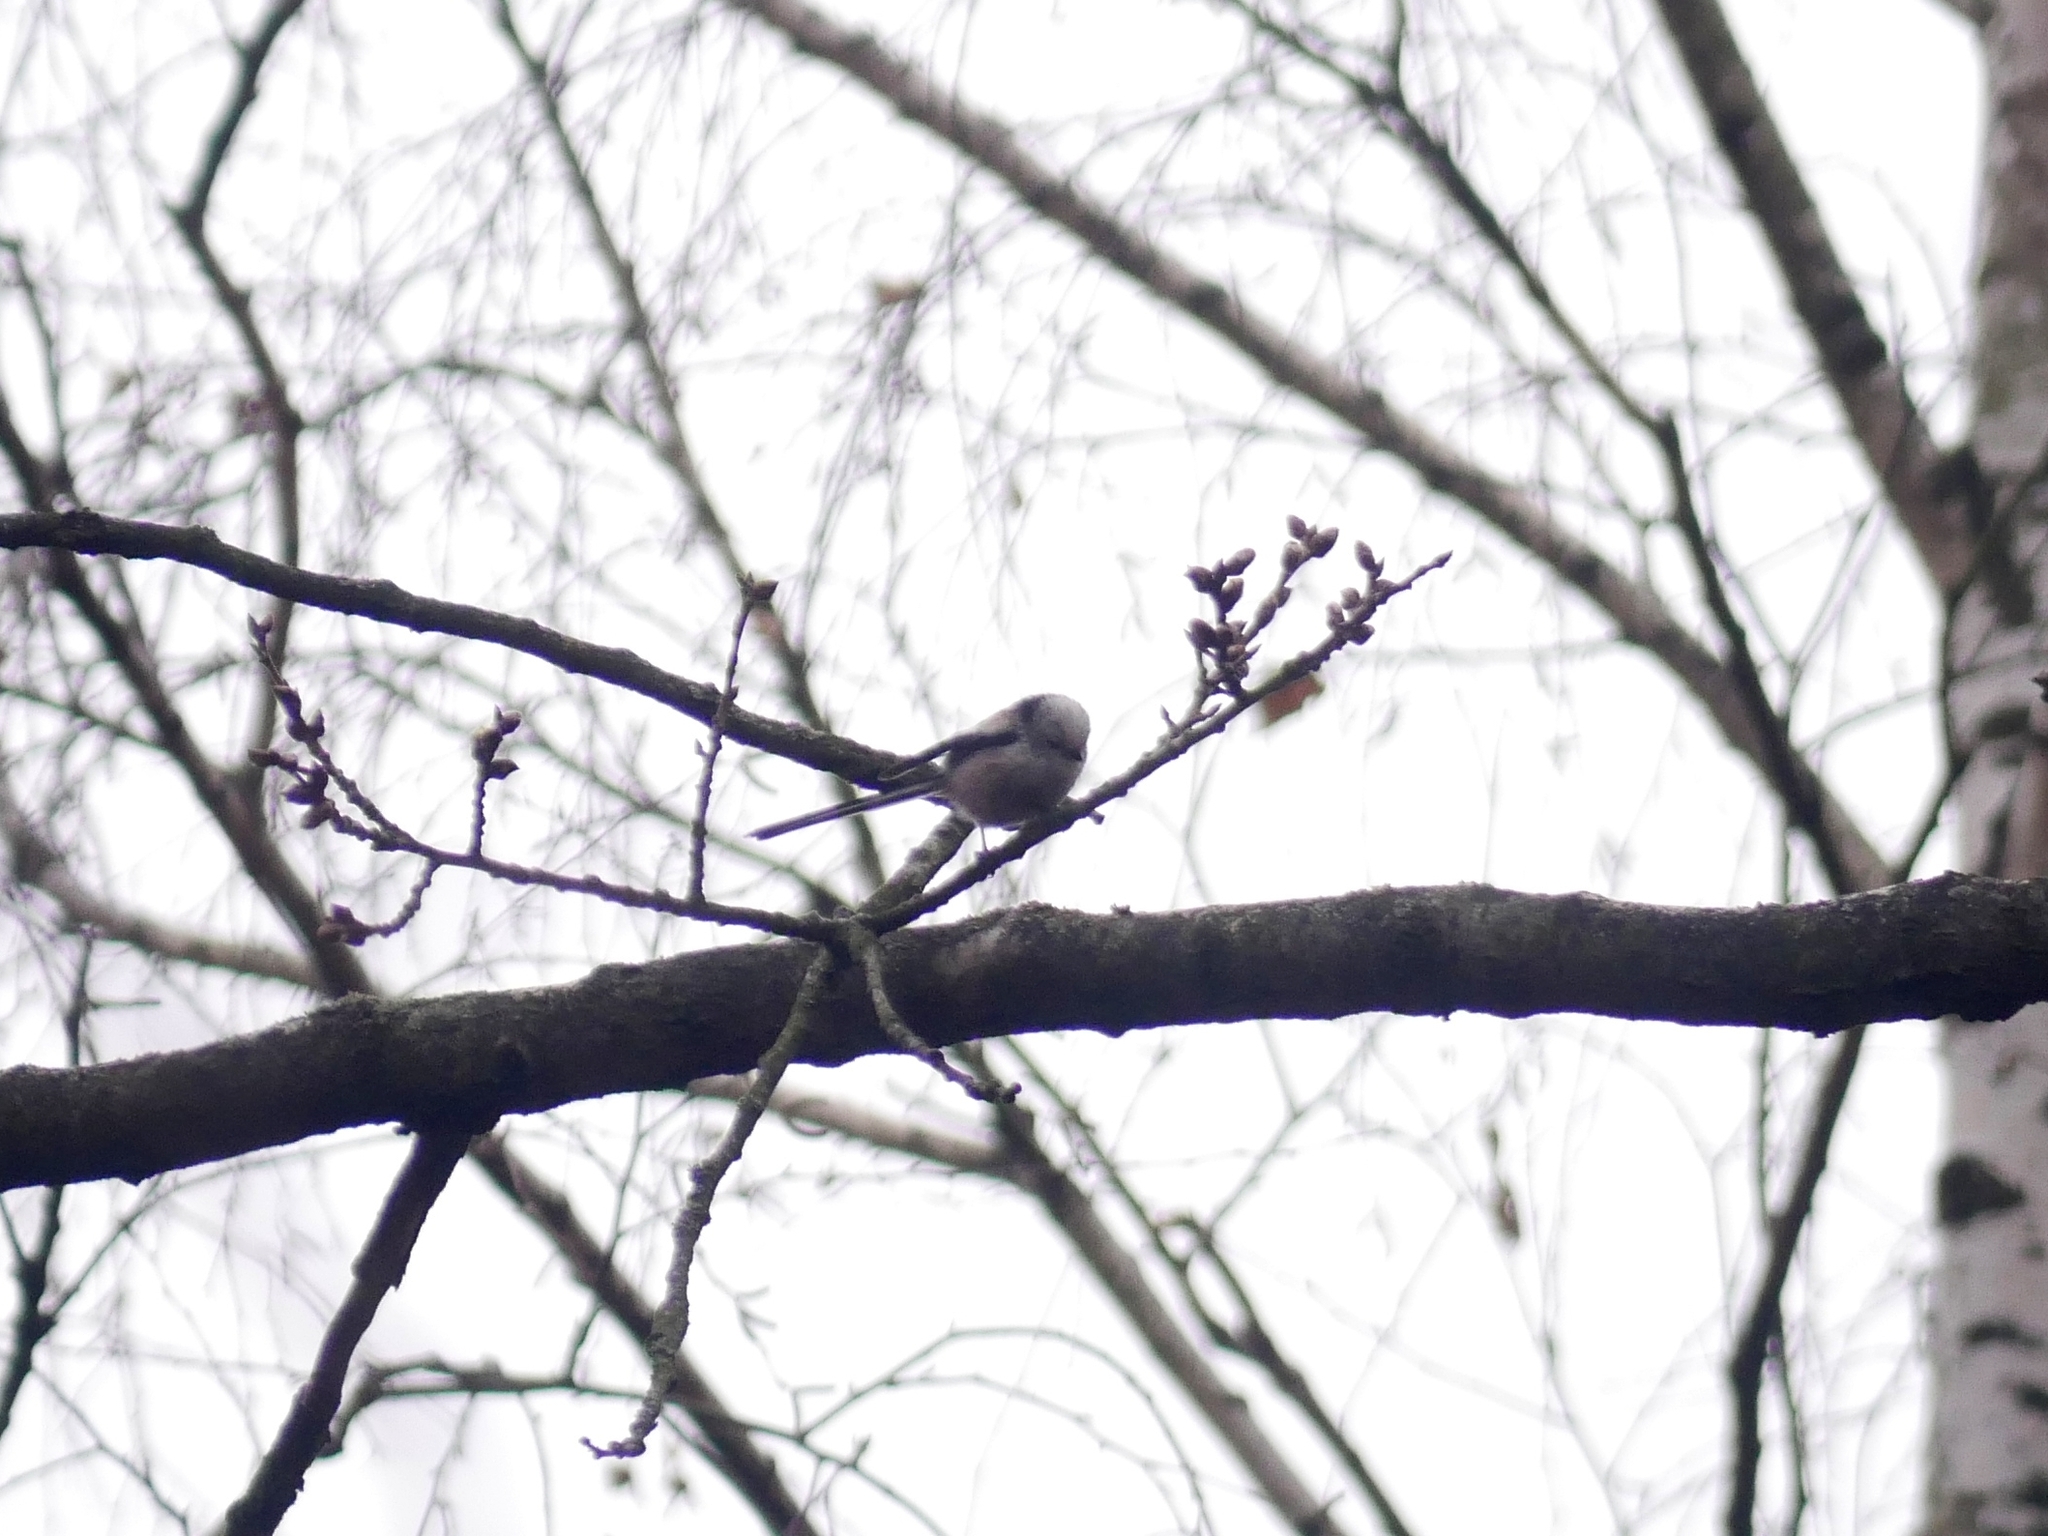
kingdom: Animalia
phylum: Chordata
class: Aves
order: Passeriformes
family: Aegithalidae
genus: Aegithalos
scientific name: Aegithalos caudatus
